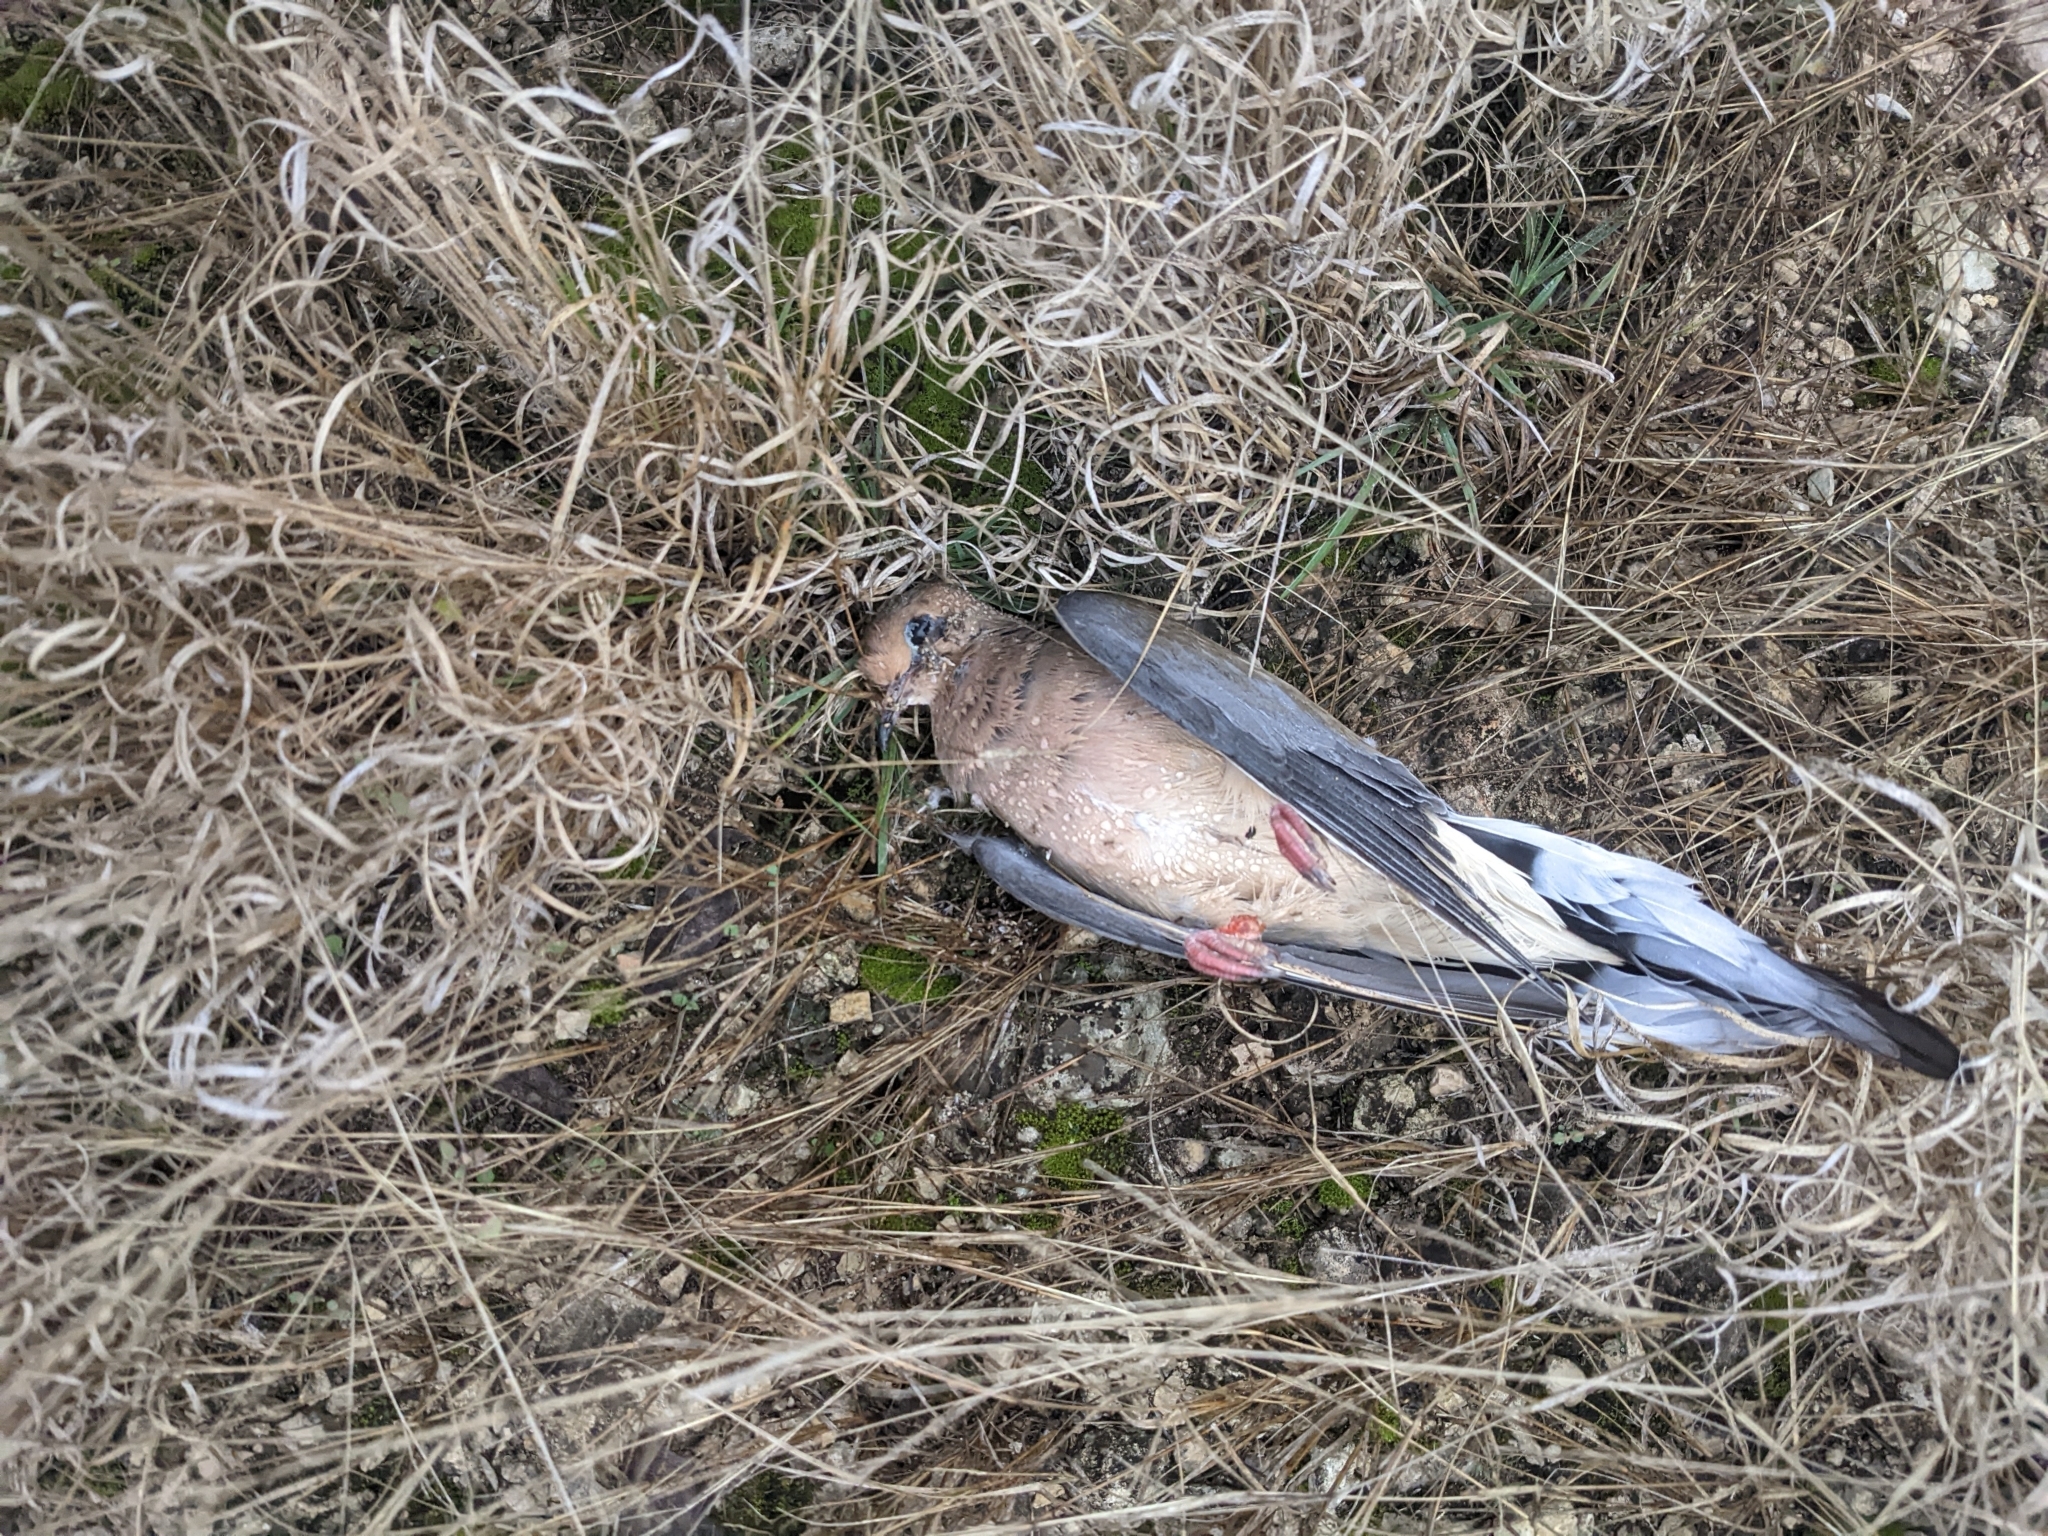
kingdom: Animalia
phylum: Chordata
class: Aves
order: Columbiformes
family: Columbidae
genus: Zenaida
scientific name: Zenaida macroura
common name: Mourning dove
